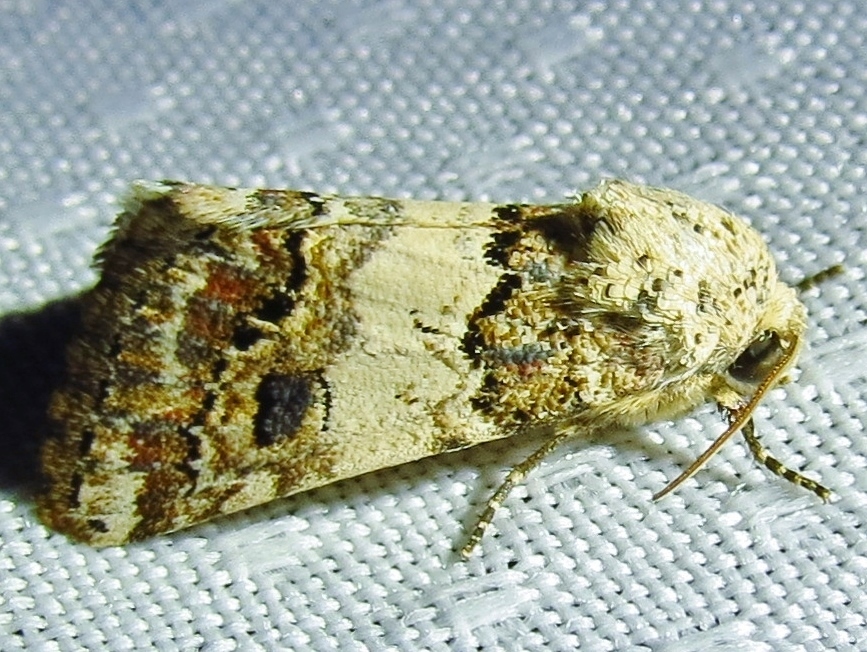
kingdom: Animalia
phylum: Arthropoda
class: Insecta
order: Lepidoptera
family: Noctuidae
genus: Schinia
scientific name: Schinia tertia
